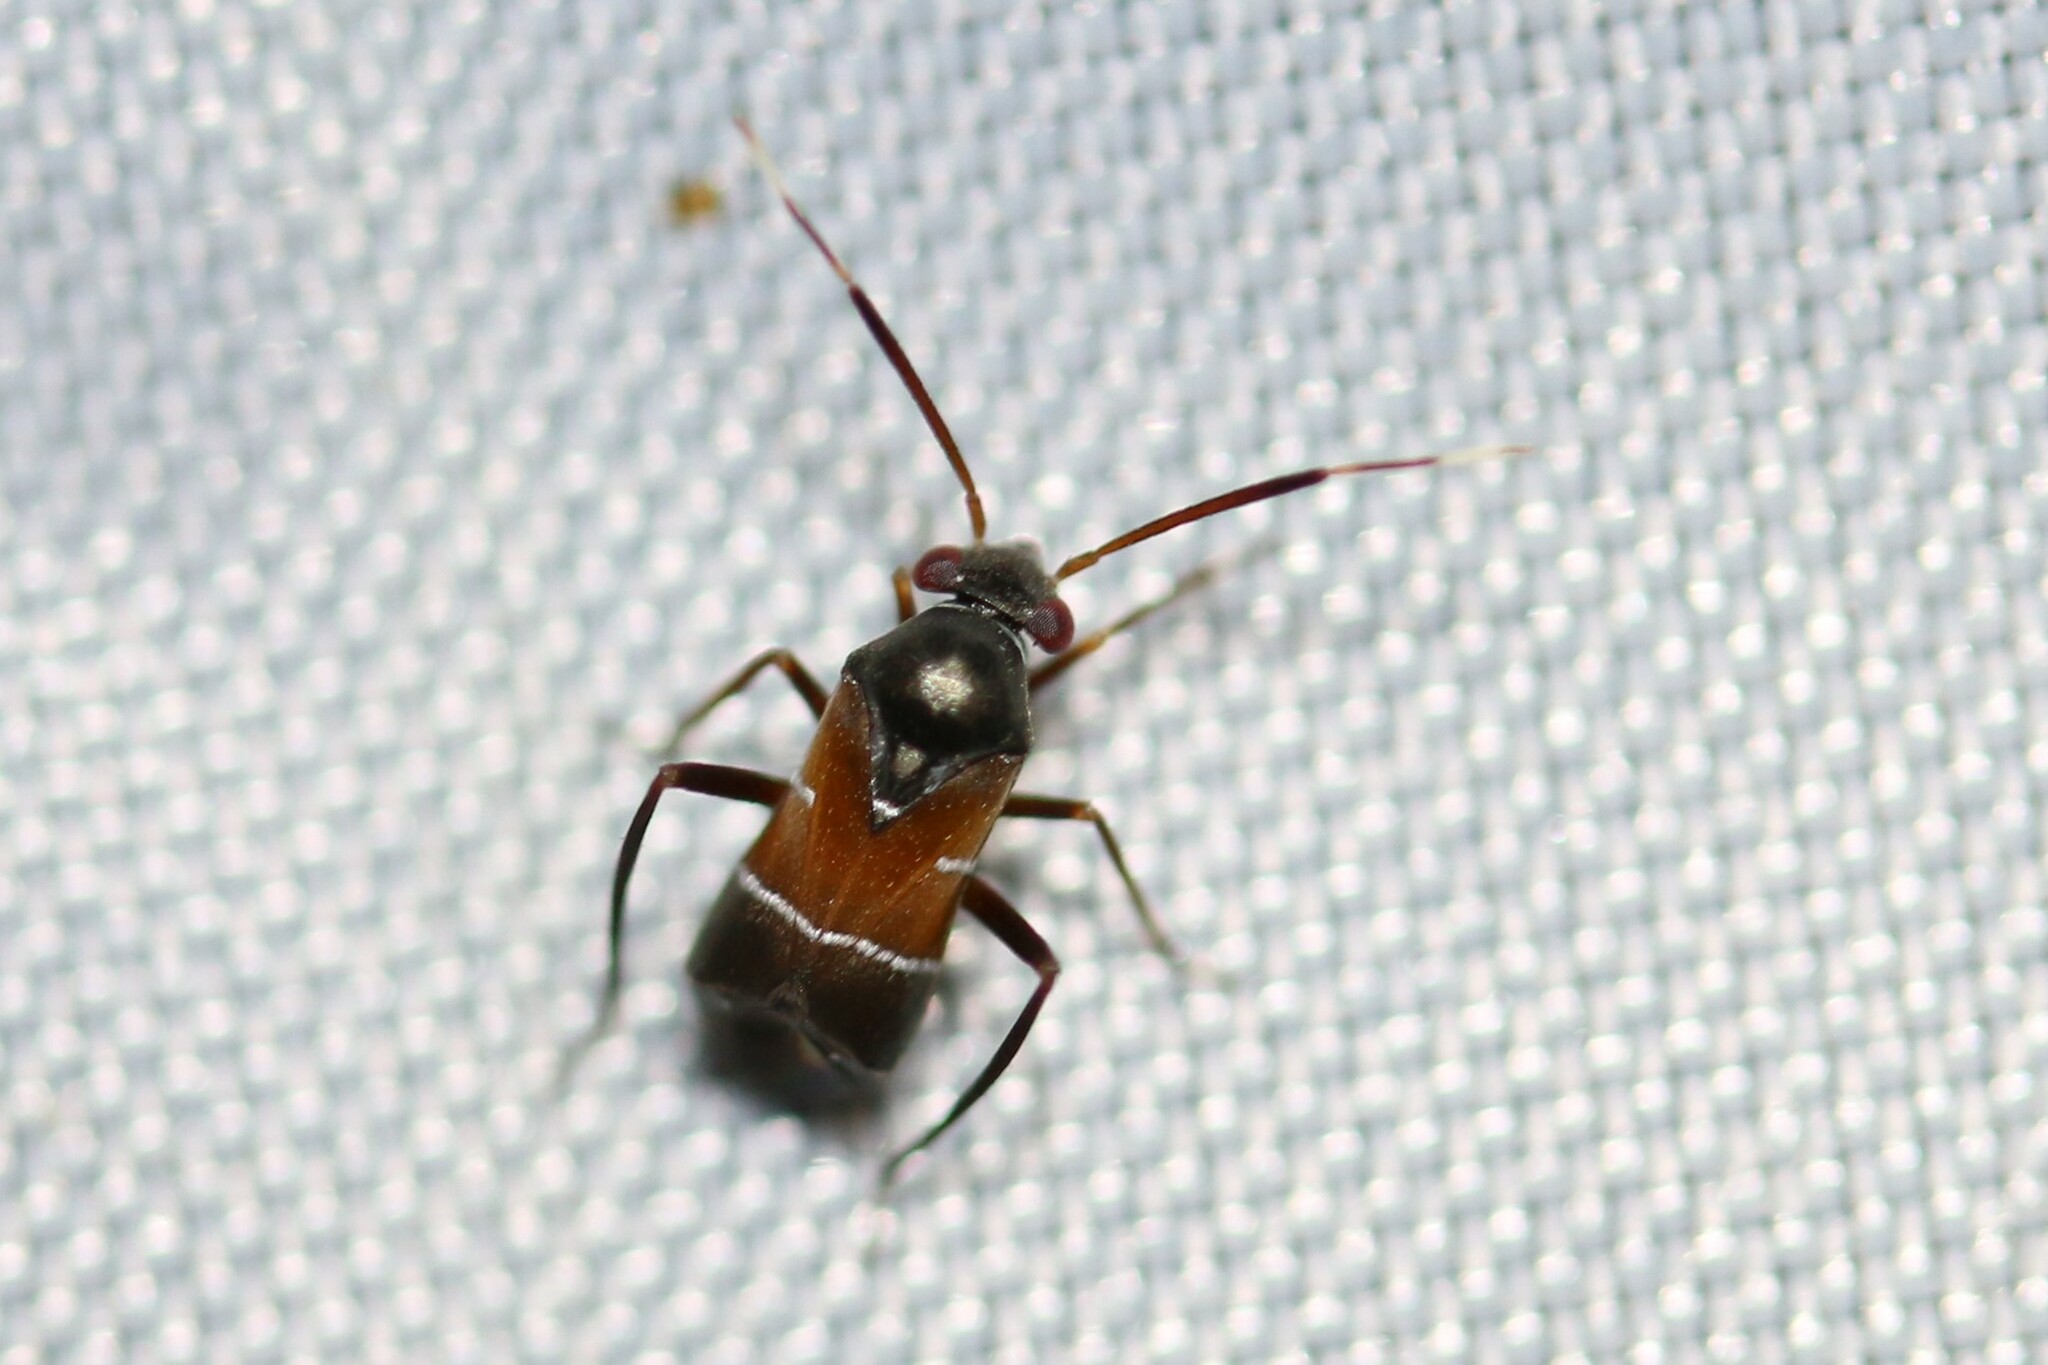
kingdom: Animalia
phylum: Arthropoda
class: Insecta
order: Hemiptera
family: Miridae
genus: Pilophorus
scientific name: Pilophorus
